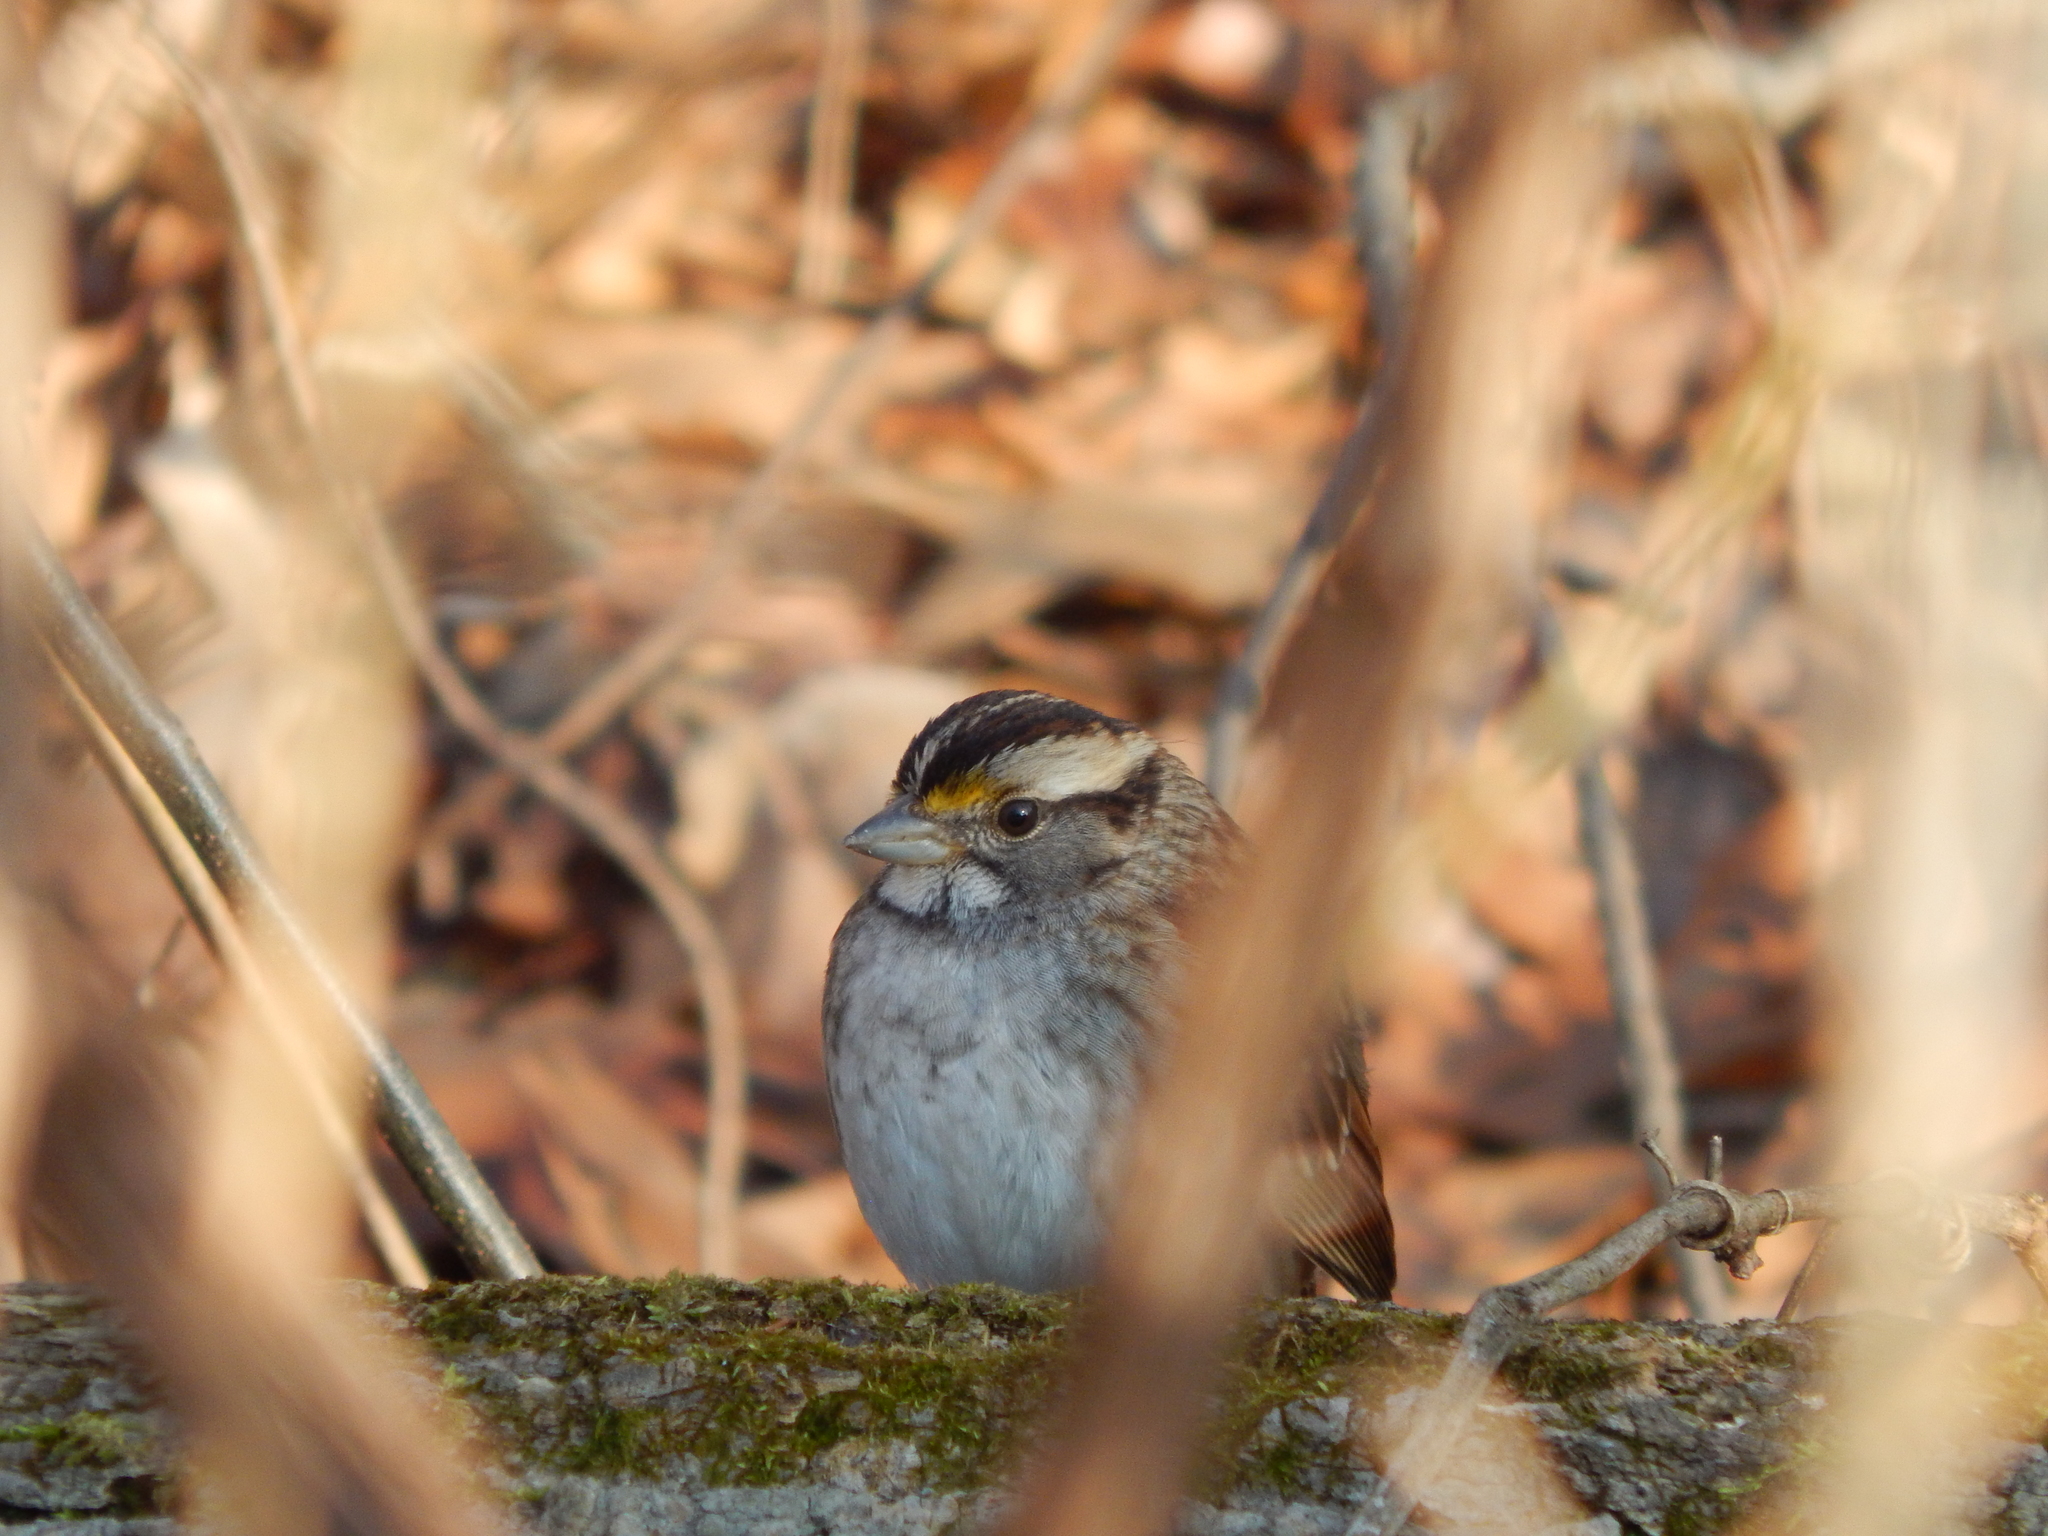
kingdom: Animalia
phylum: Chordata
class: Aves
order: Passeriformes
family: Passerellidae
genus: Zonotrichia
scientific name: Zonotrichia albicollis
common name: White-throated sparrow
